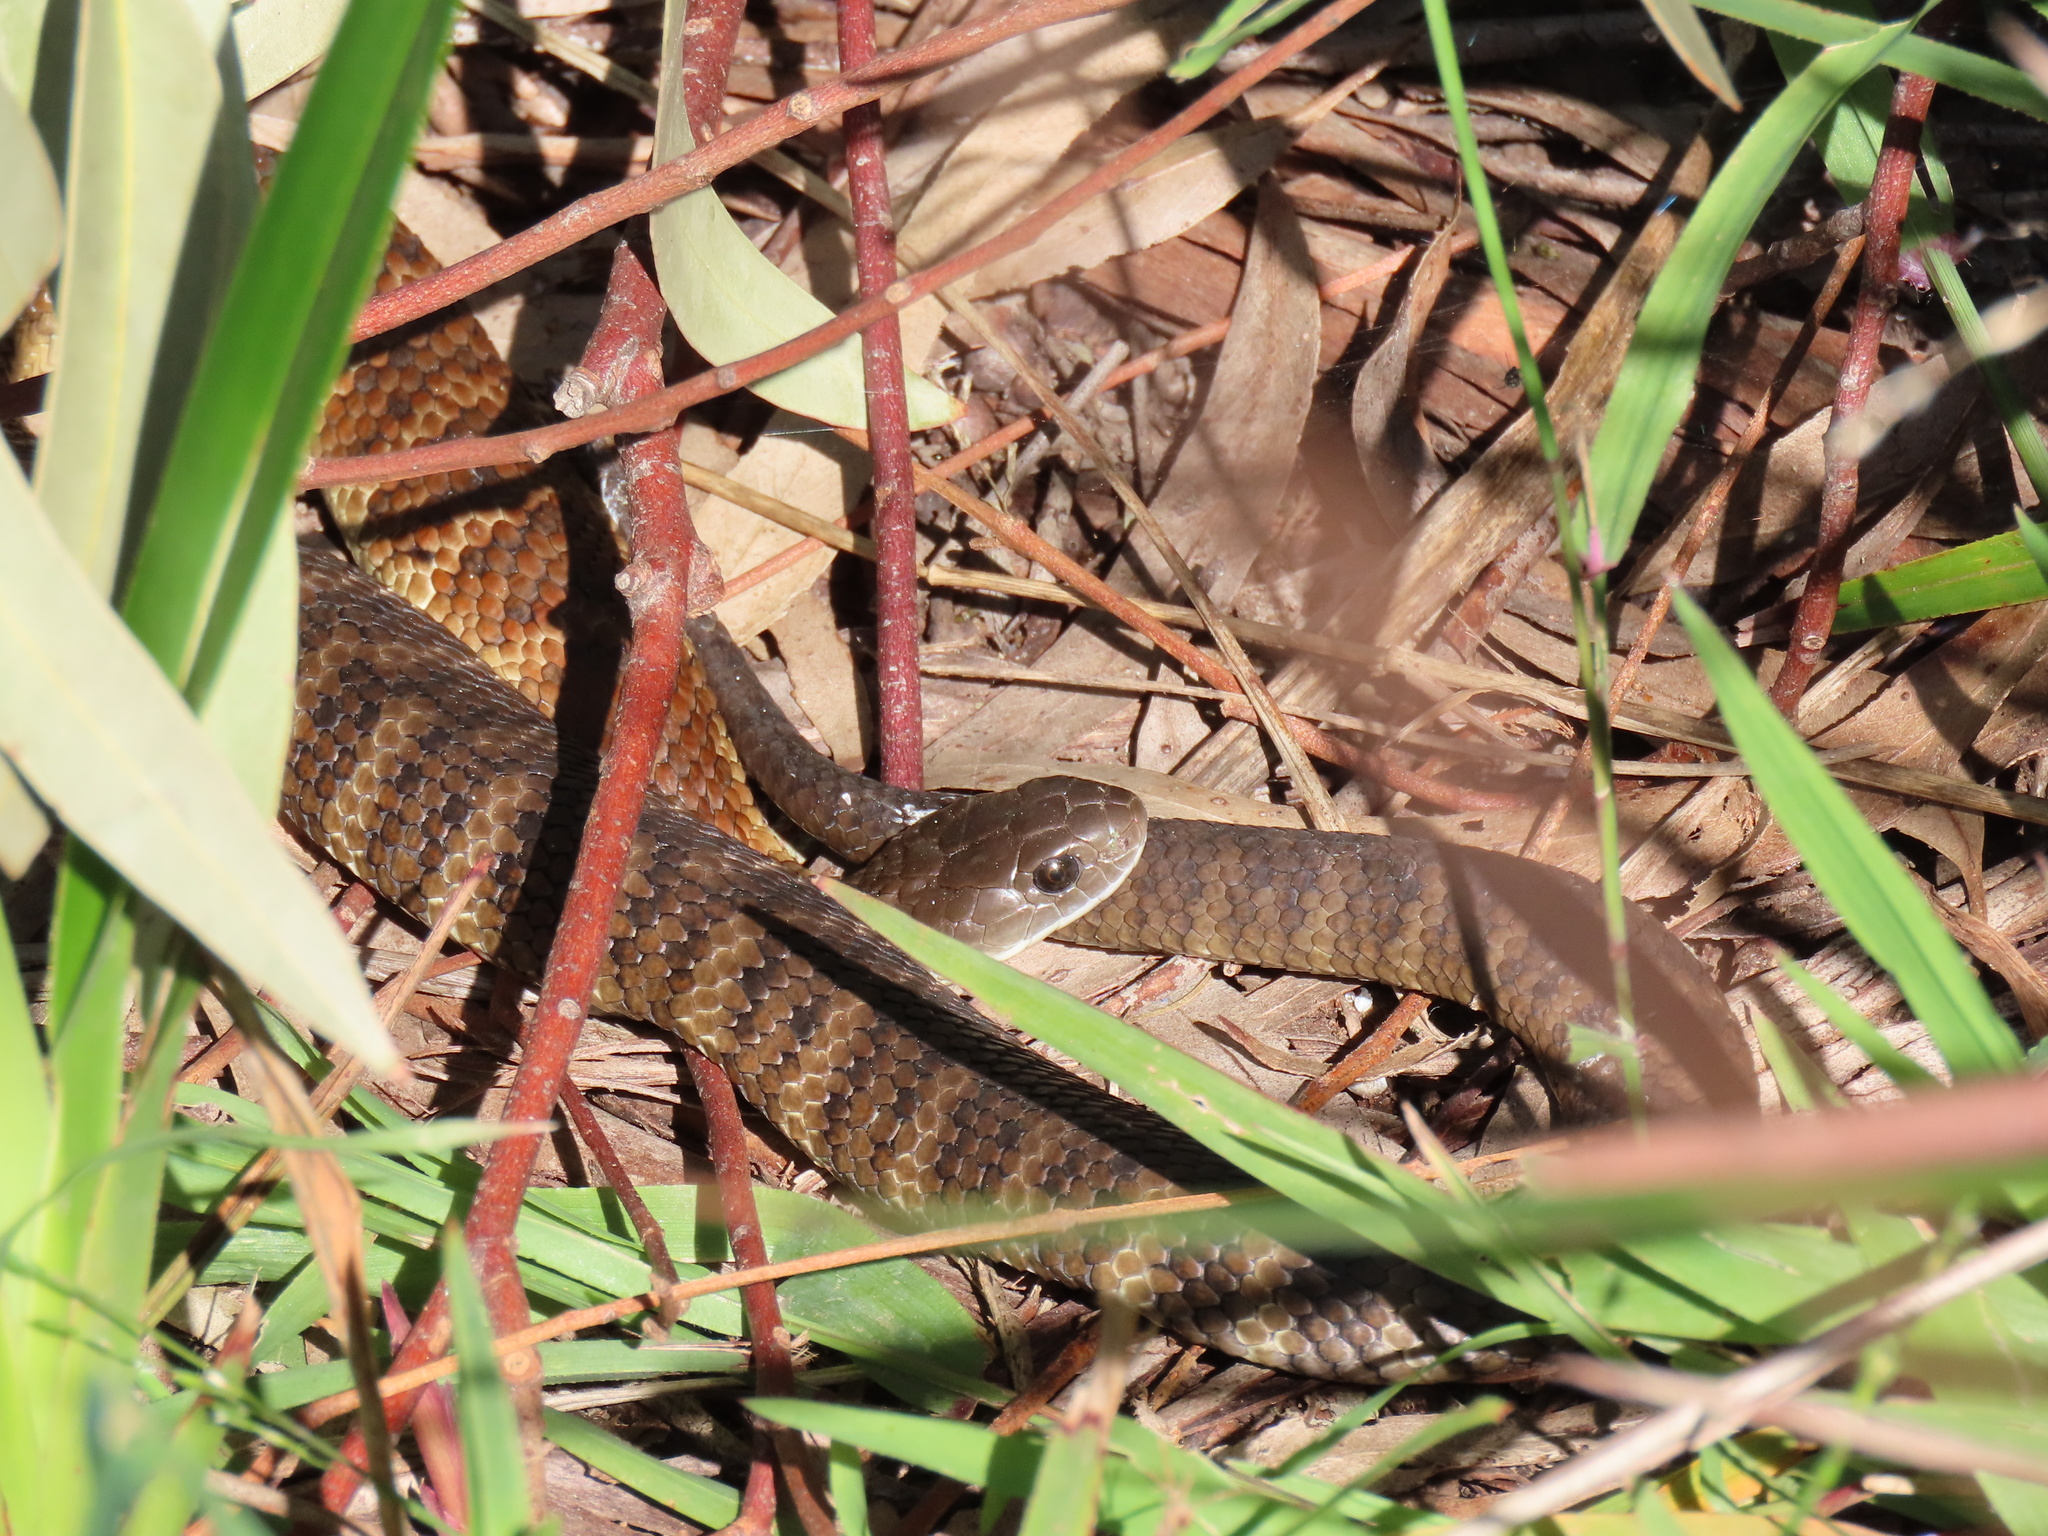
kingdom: Animalia
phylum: Chordata
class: Squamata
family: Elapidae
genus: Notechis
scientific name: Notechis scutatus
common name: Mainland tiger snake
